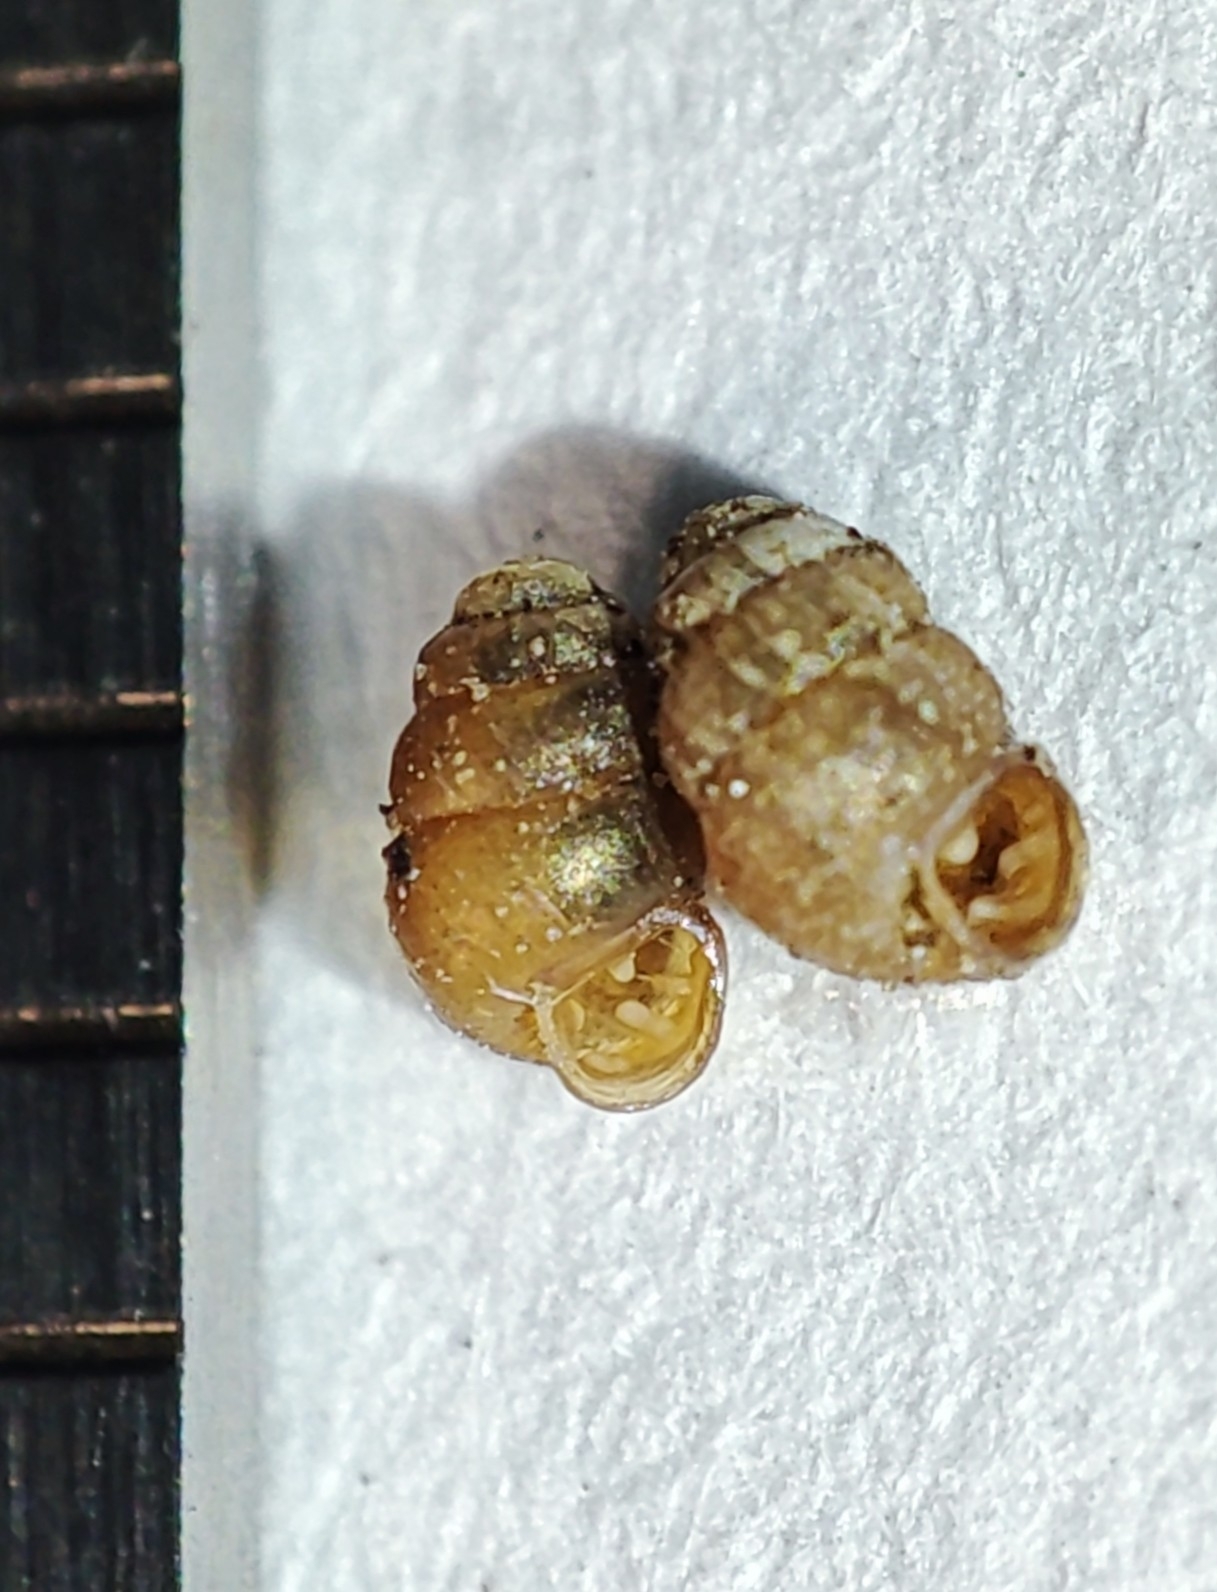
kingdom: Animalia
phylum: Mollusca
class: Gastropoda
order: Stylommatophora
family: Vertiginidae
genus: Vertigo
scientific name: Vertigo pygmaea
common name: Common whorl snail
